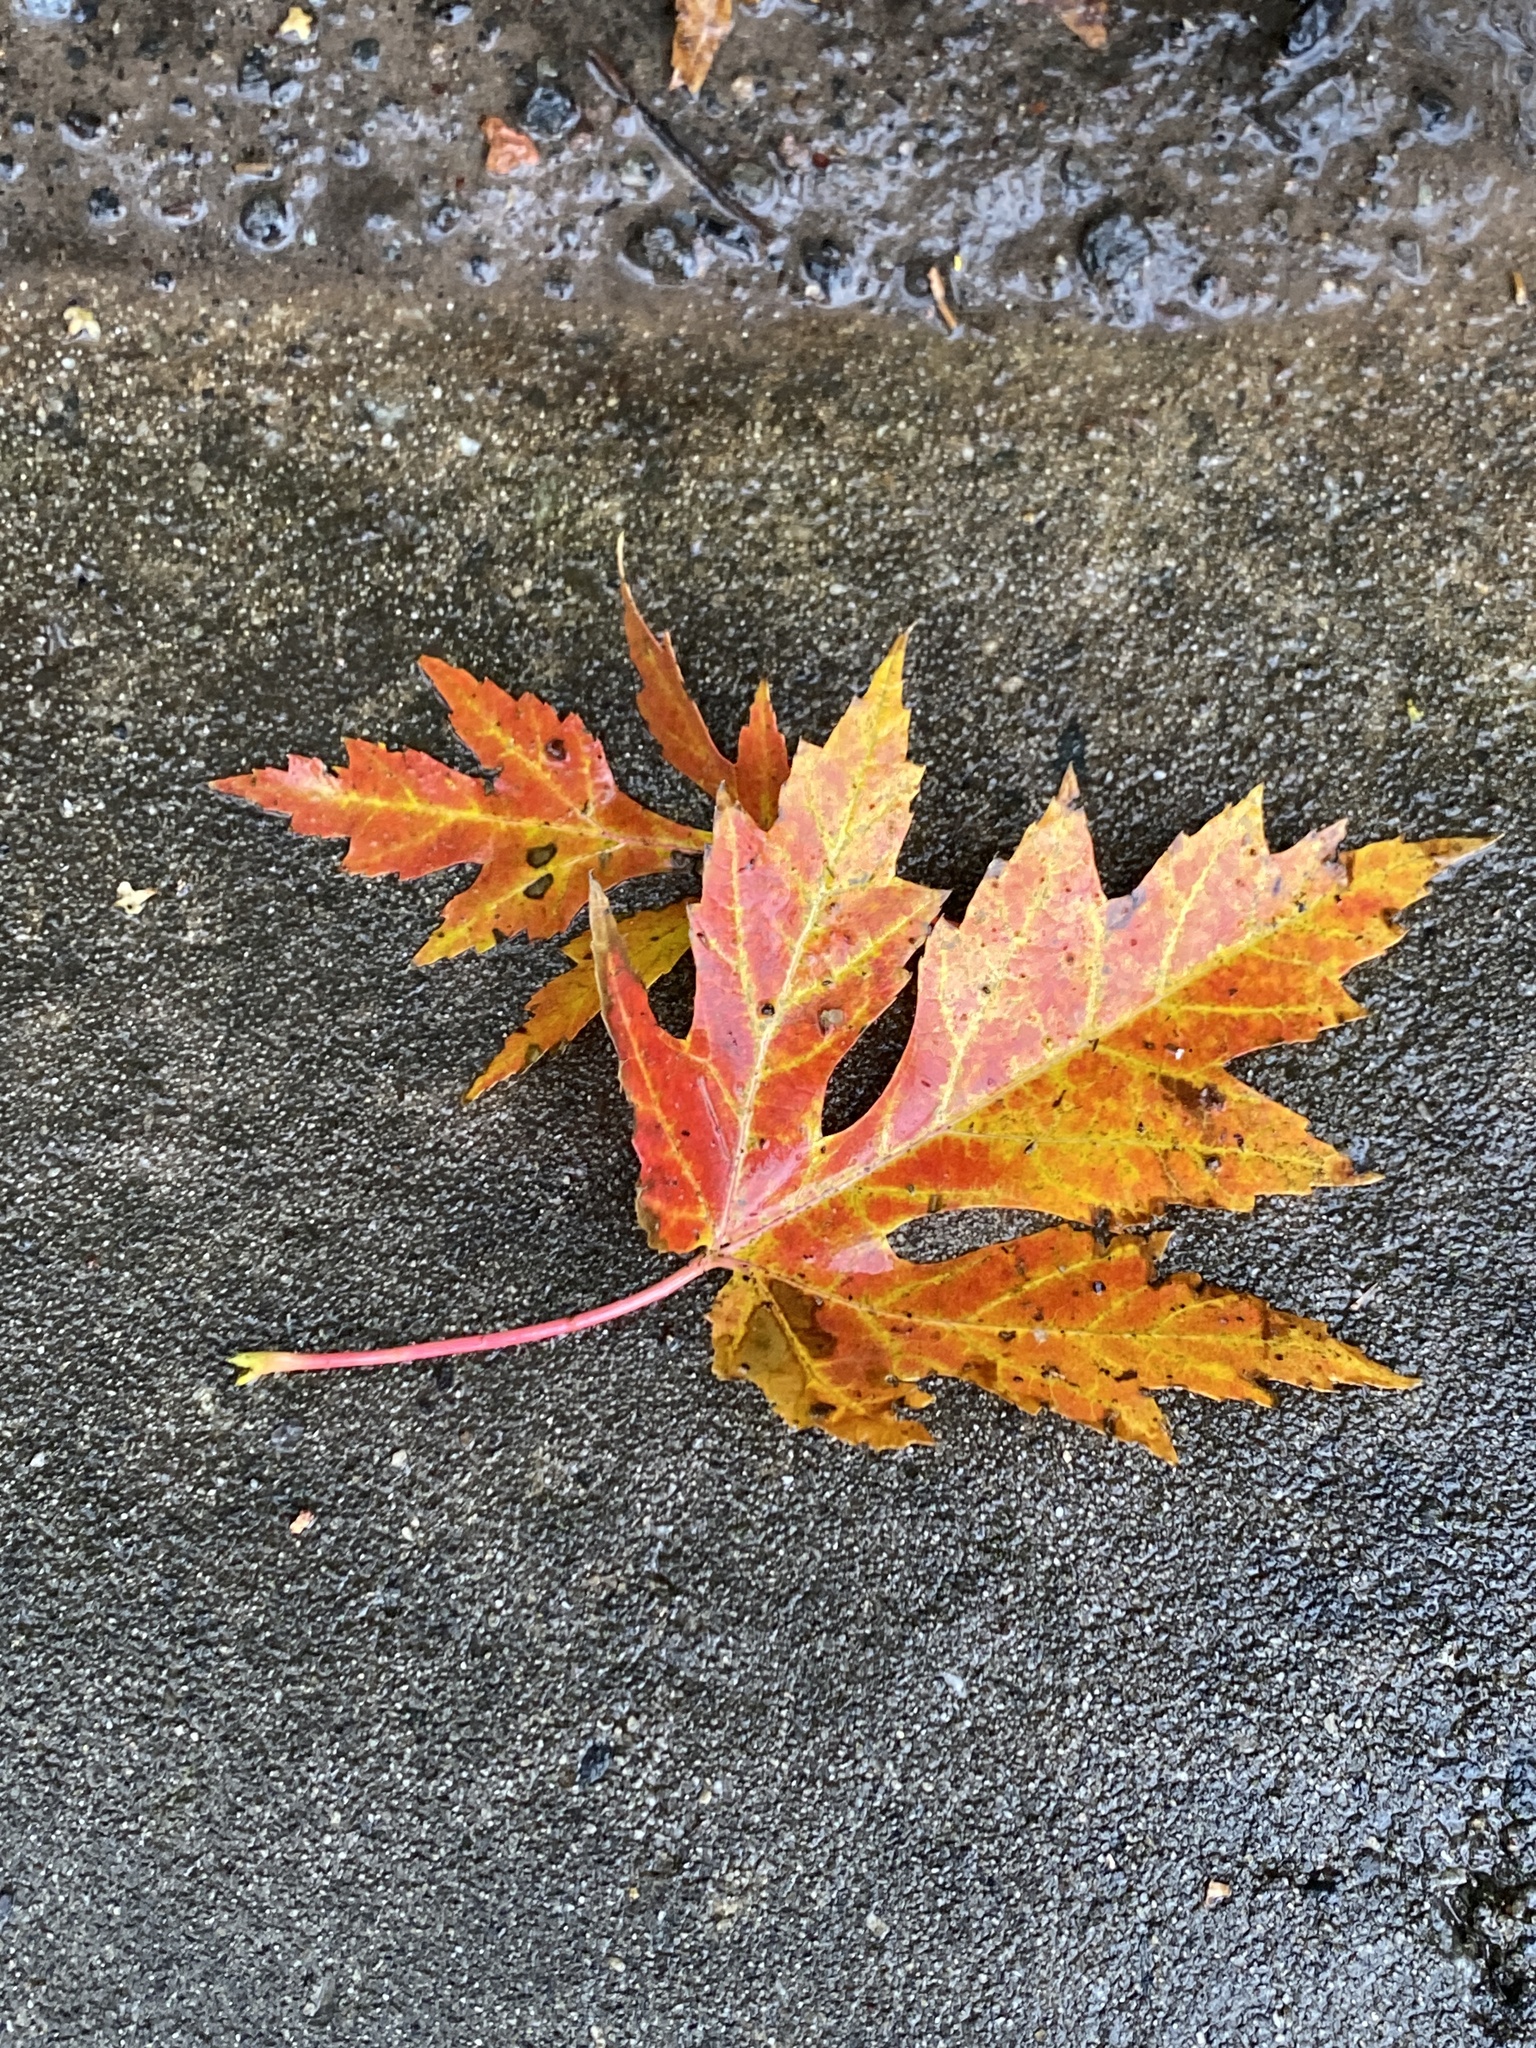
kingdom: Plantae
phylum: Tracheophyta
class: Magnoliopsida
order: Sapindales
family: Sapindaceae
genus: Acer
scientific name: Acer saccharinum
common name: Silver maple
